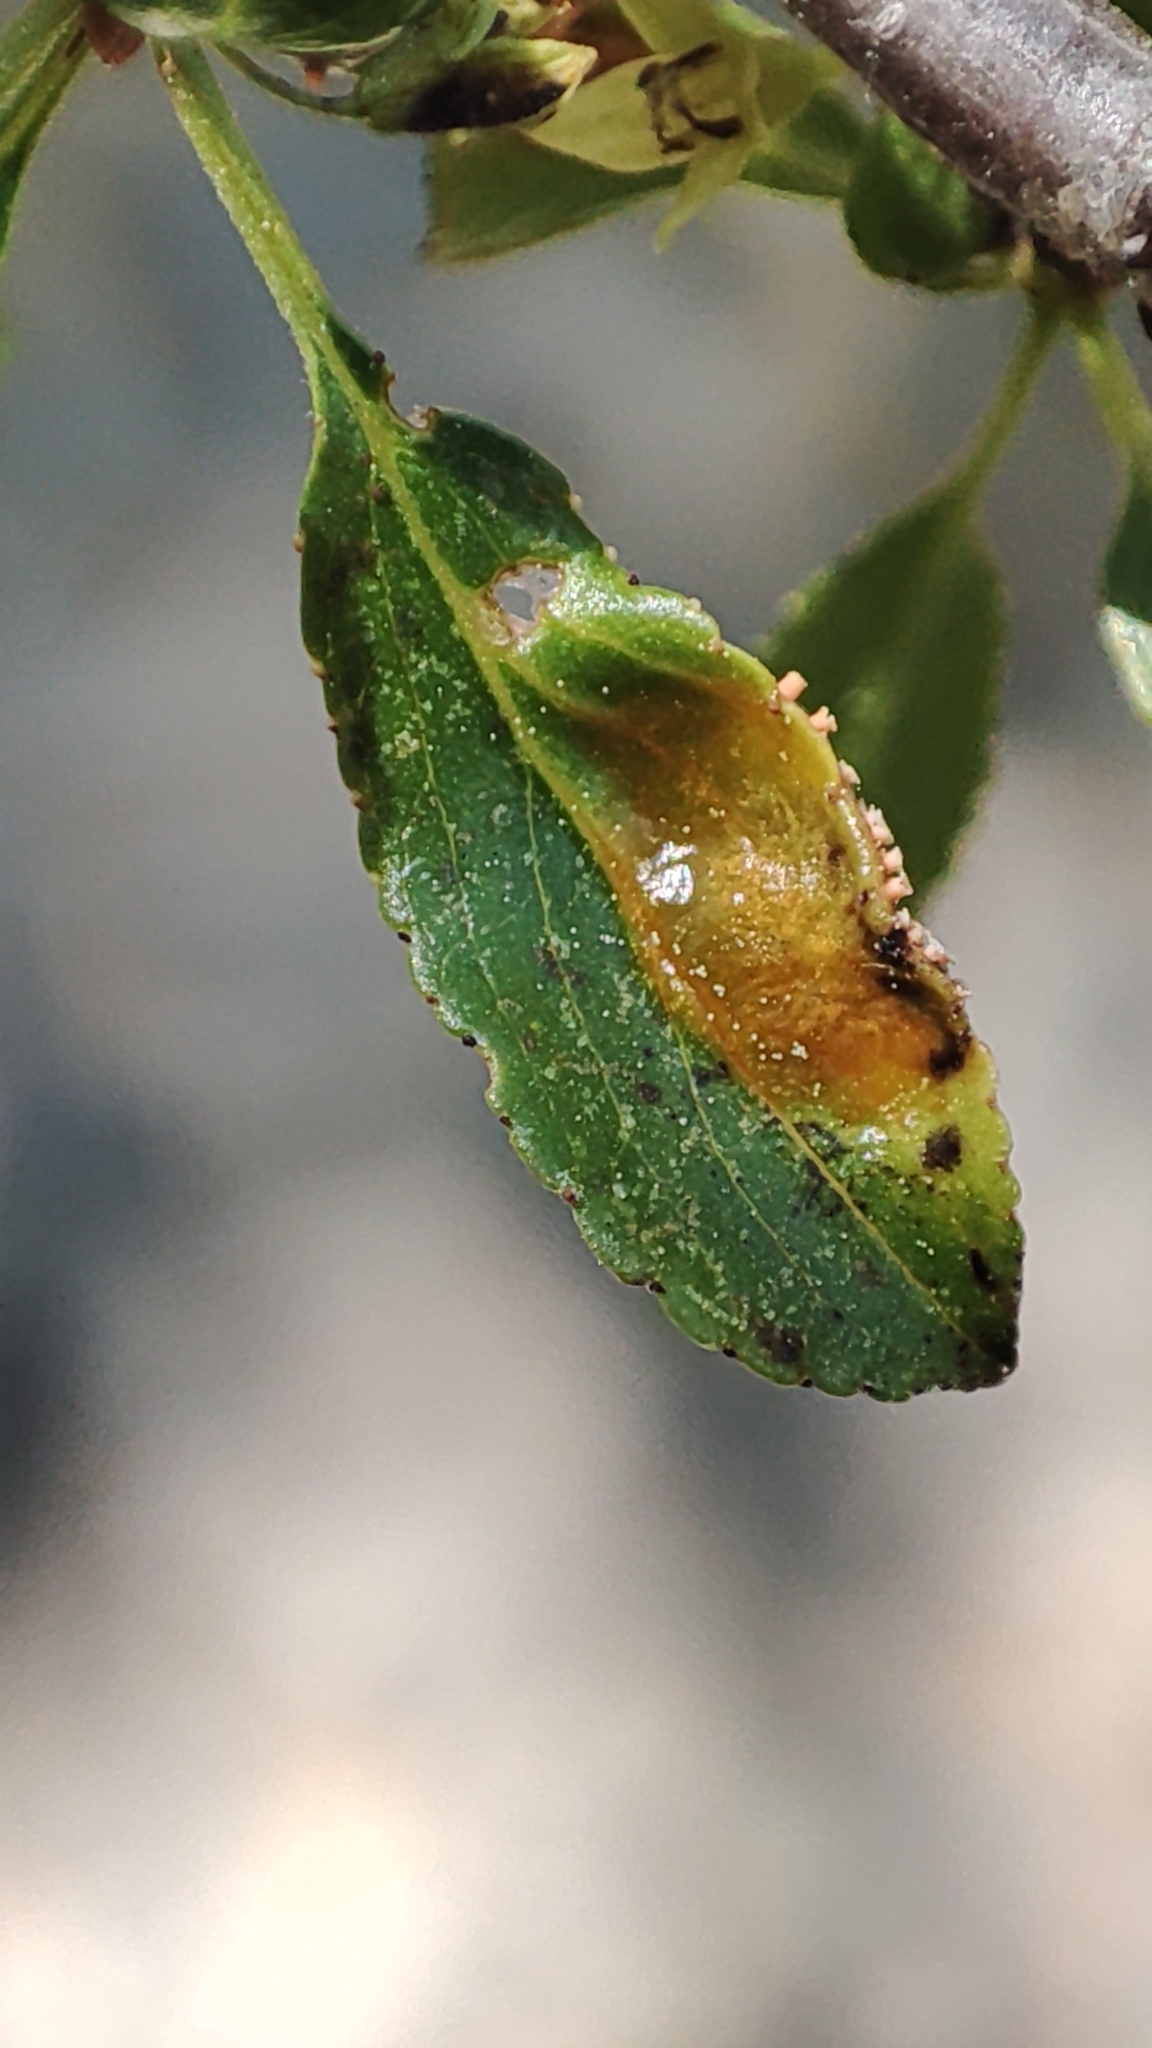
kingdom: Fungi
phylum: Basidiomycota
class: Pucciniomycetes
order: Pucciniales
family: Pucciniaceae
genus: Puccinia
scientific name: Puccinia coronata
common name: Crown rust
